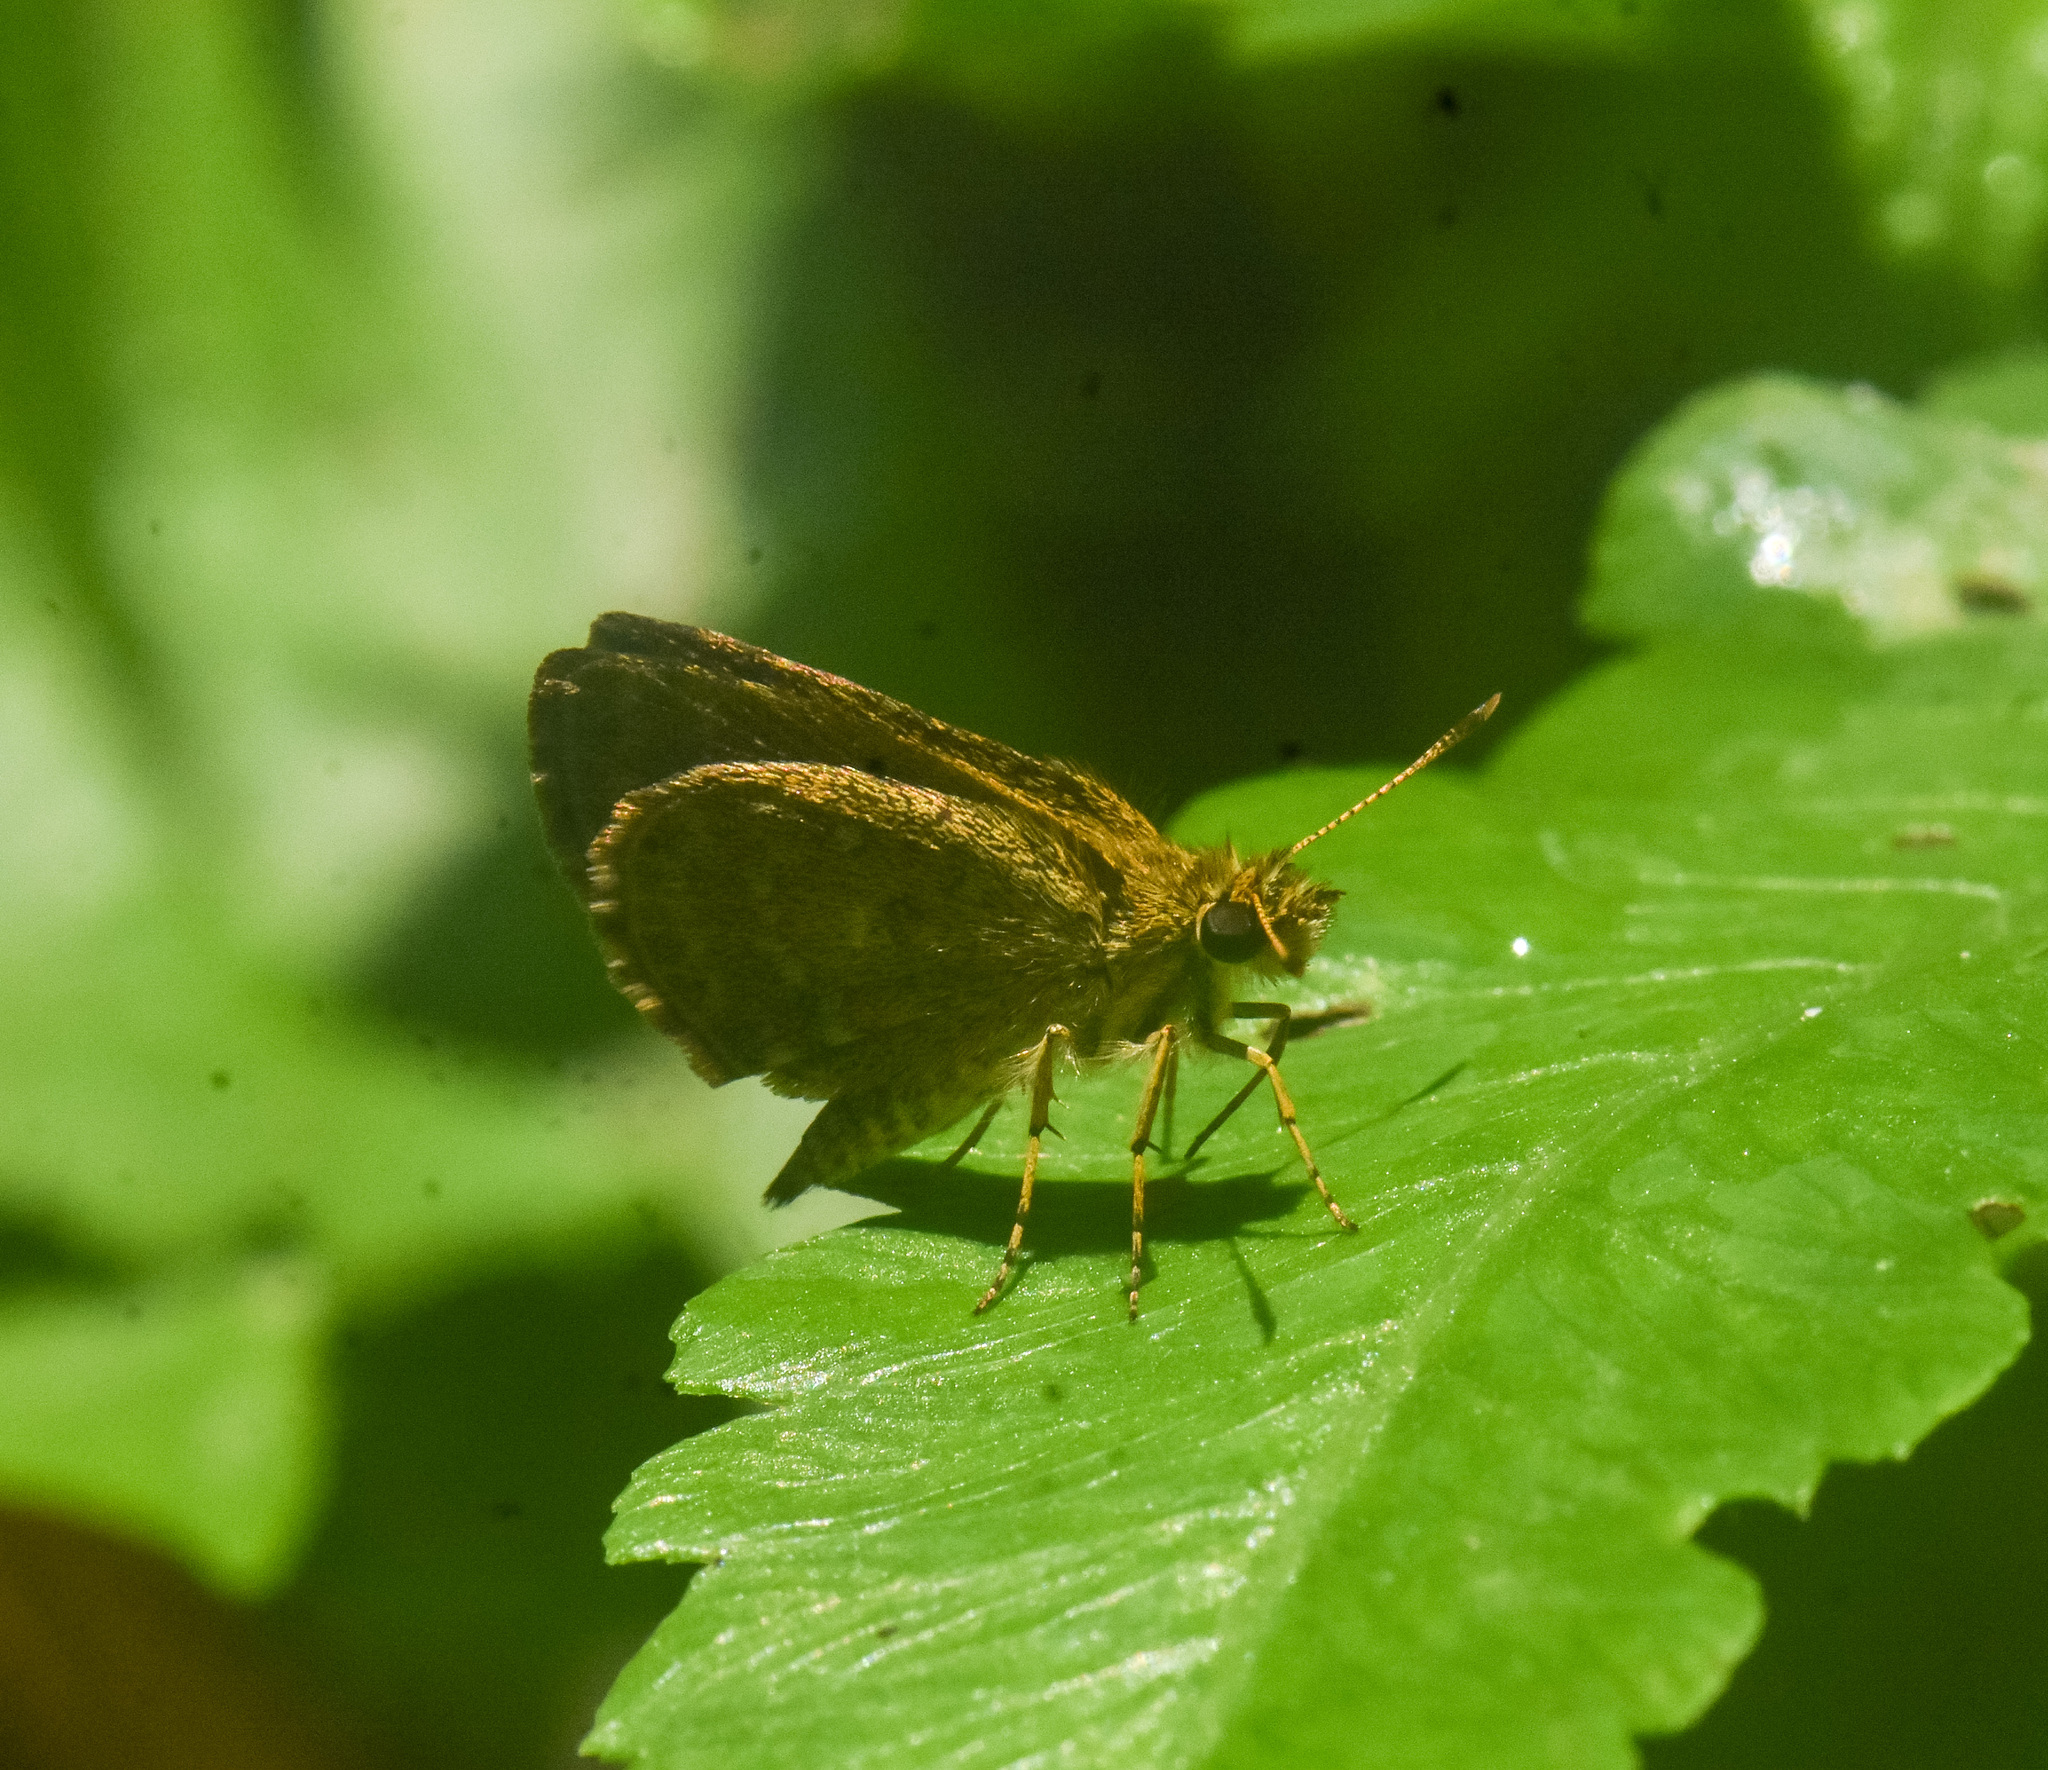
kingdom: Animalia
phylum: Arthropoda
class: Insecta
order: Lepidoptera
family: Hesperiidae
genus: Aeromachus
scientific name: Aeromachus pygmaeus
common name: Pygmy scrub hopper
